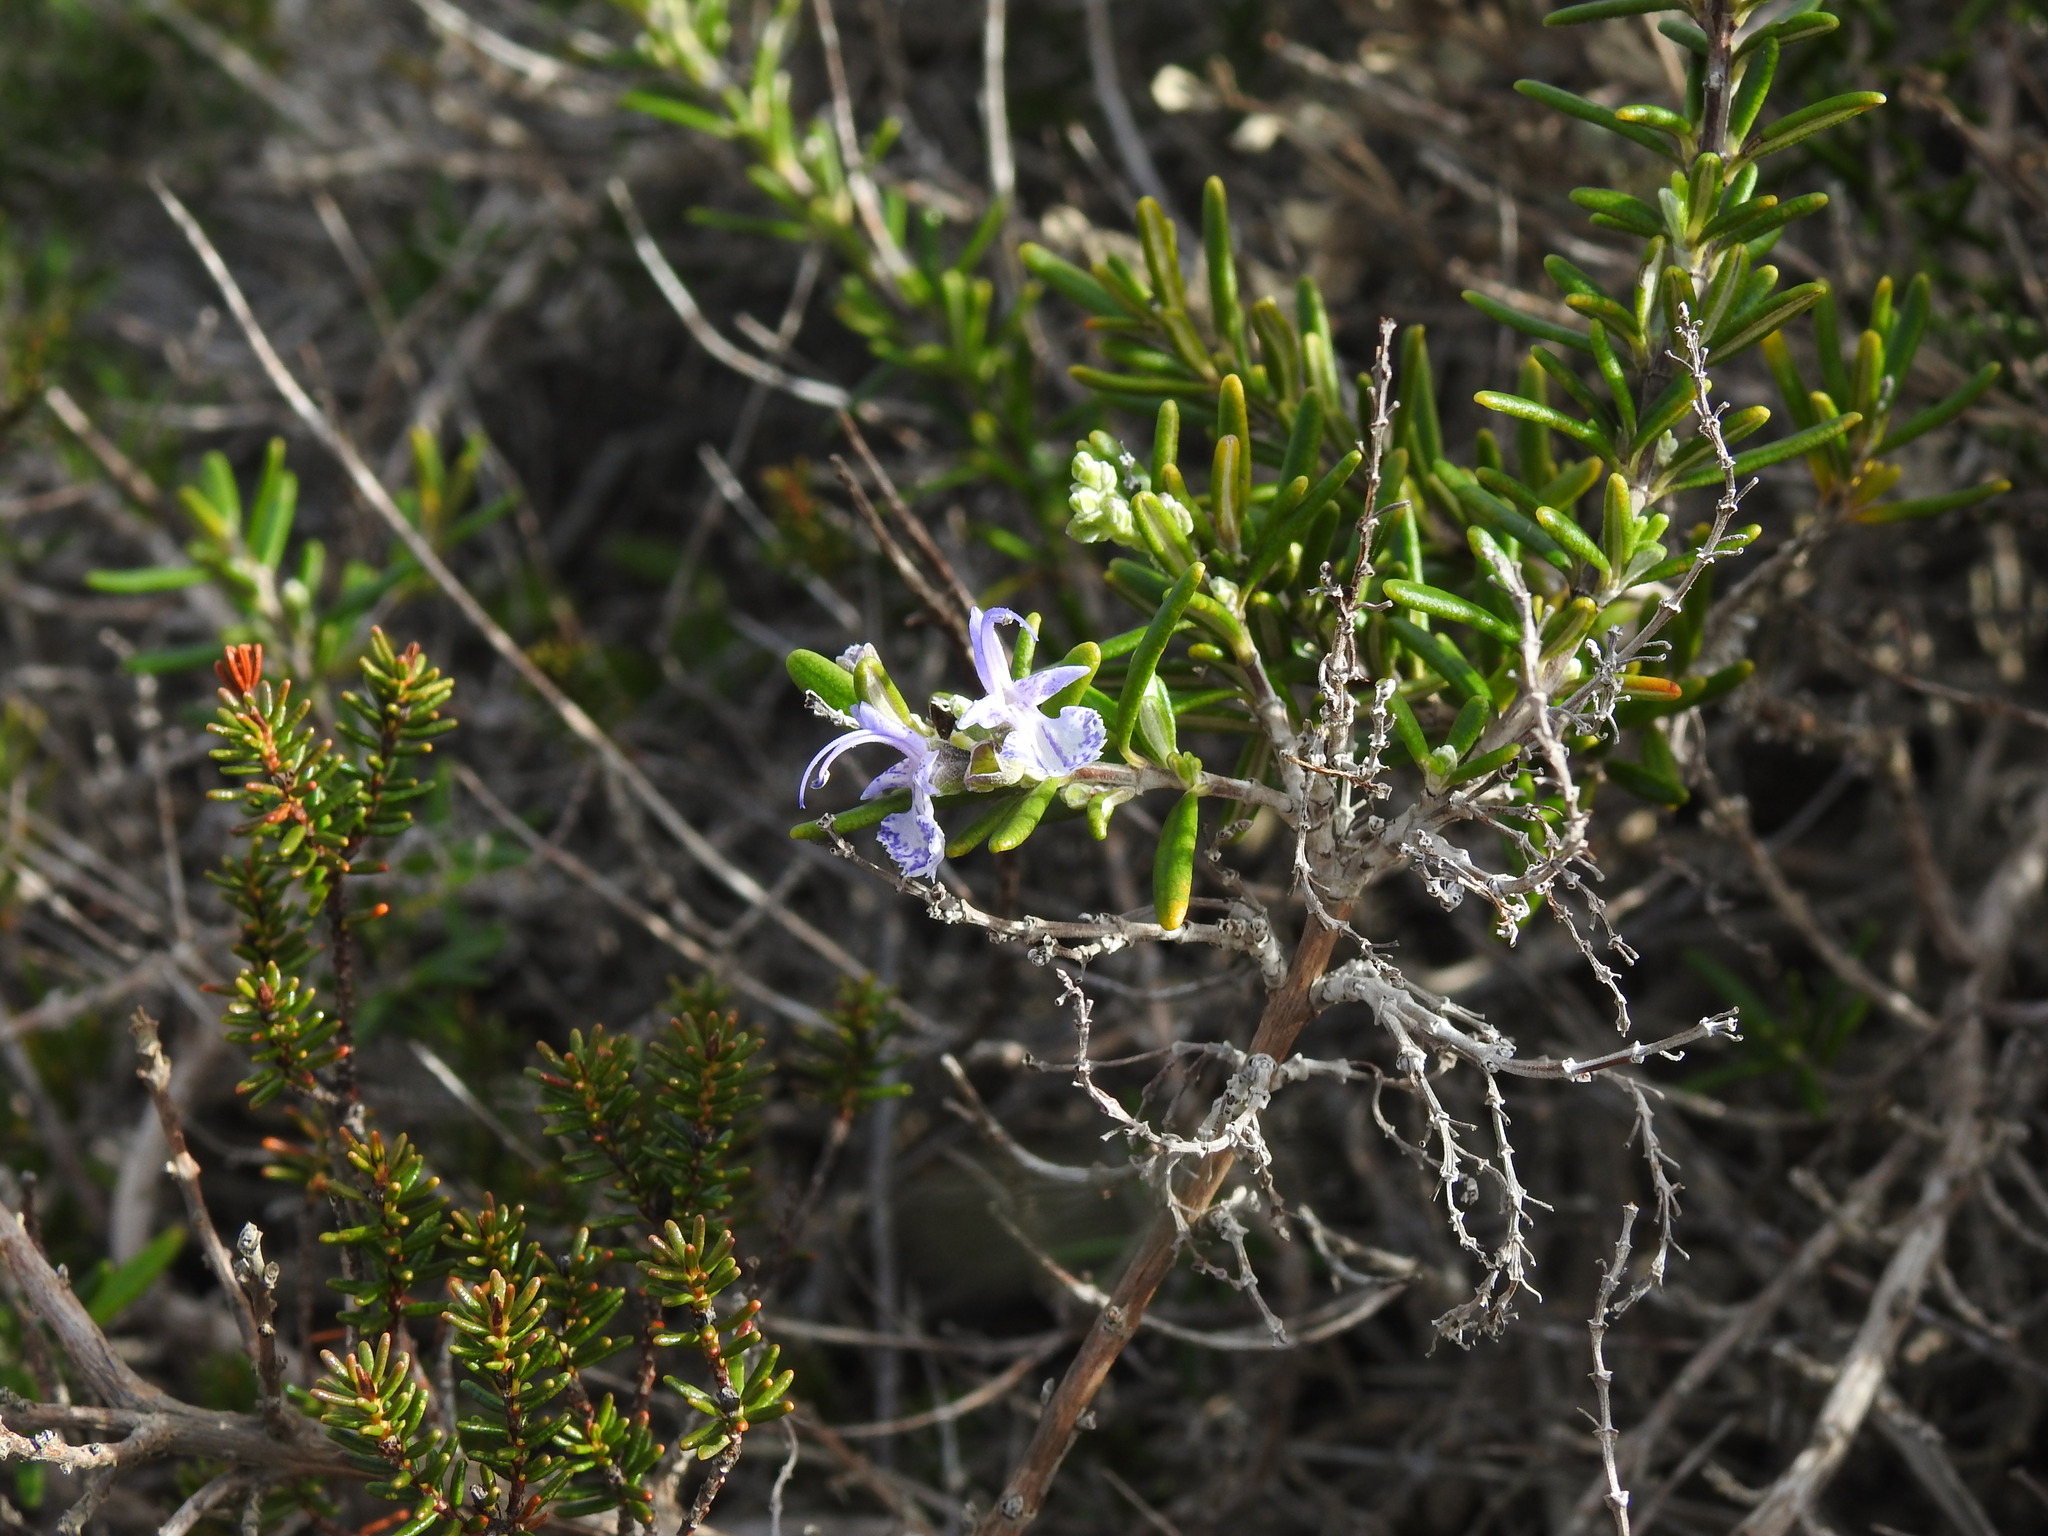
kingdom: Plantae
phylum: Tracheophyta
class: Magnoliopsida
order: Lamiales
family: Lamiaceae
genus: Salvia
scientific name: Salvia rosmarinus
